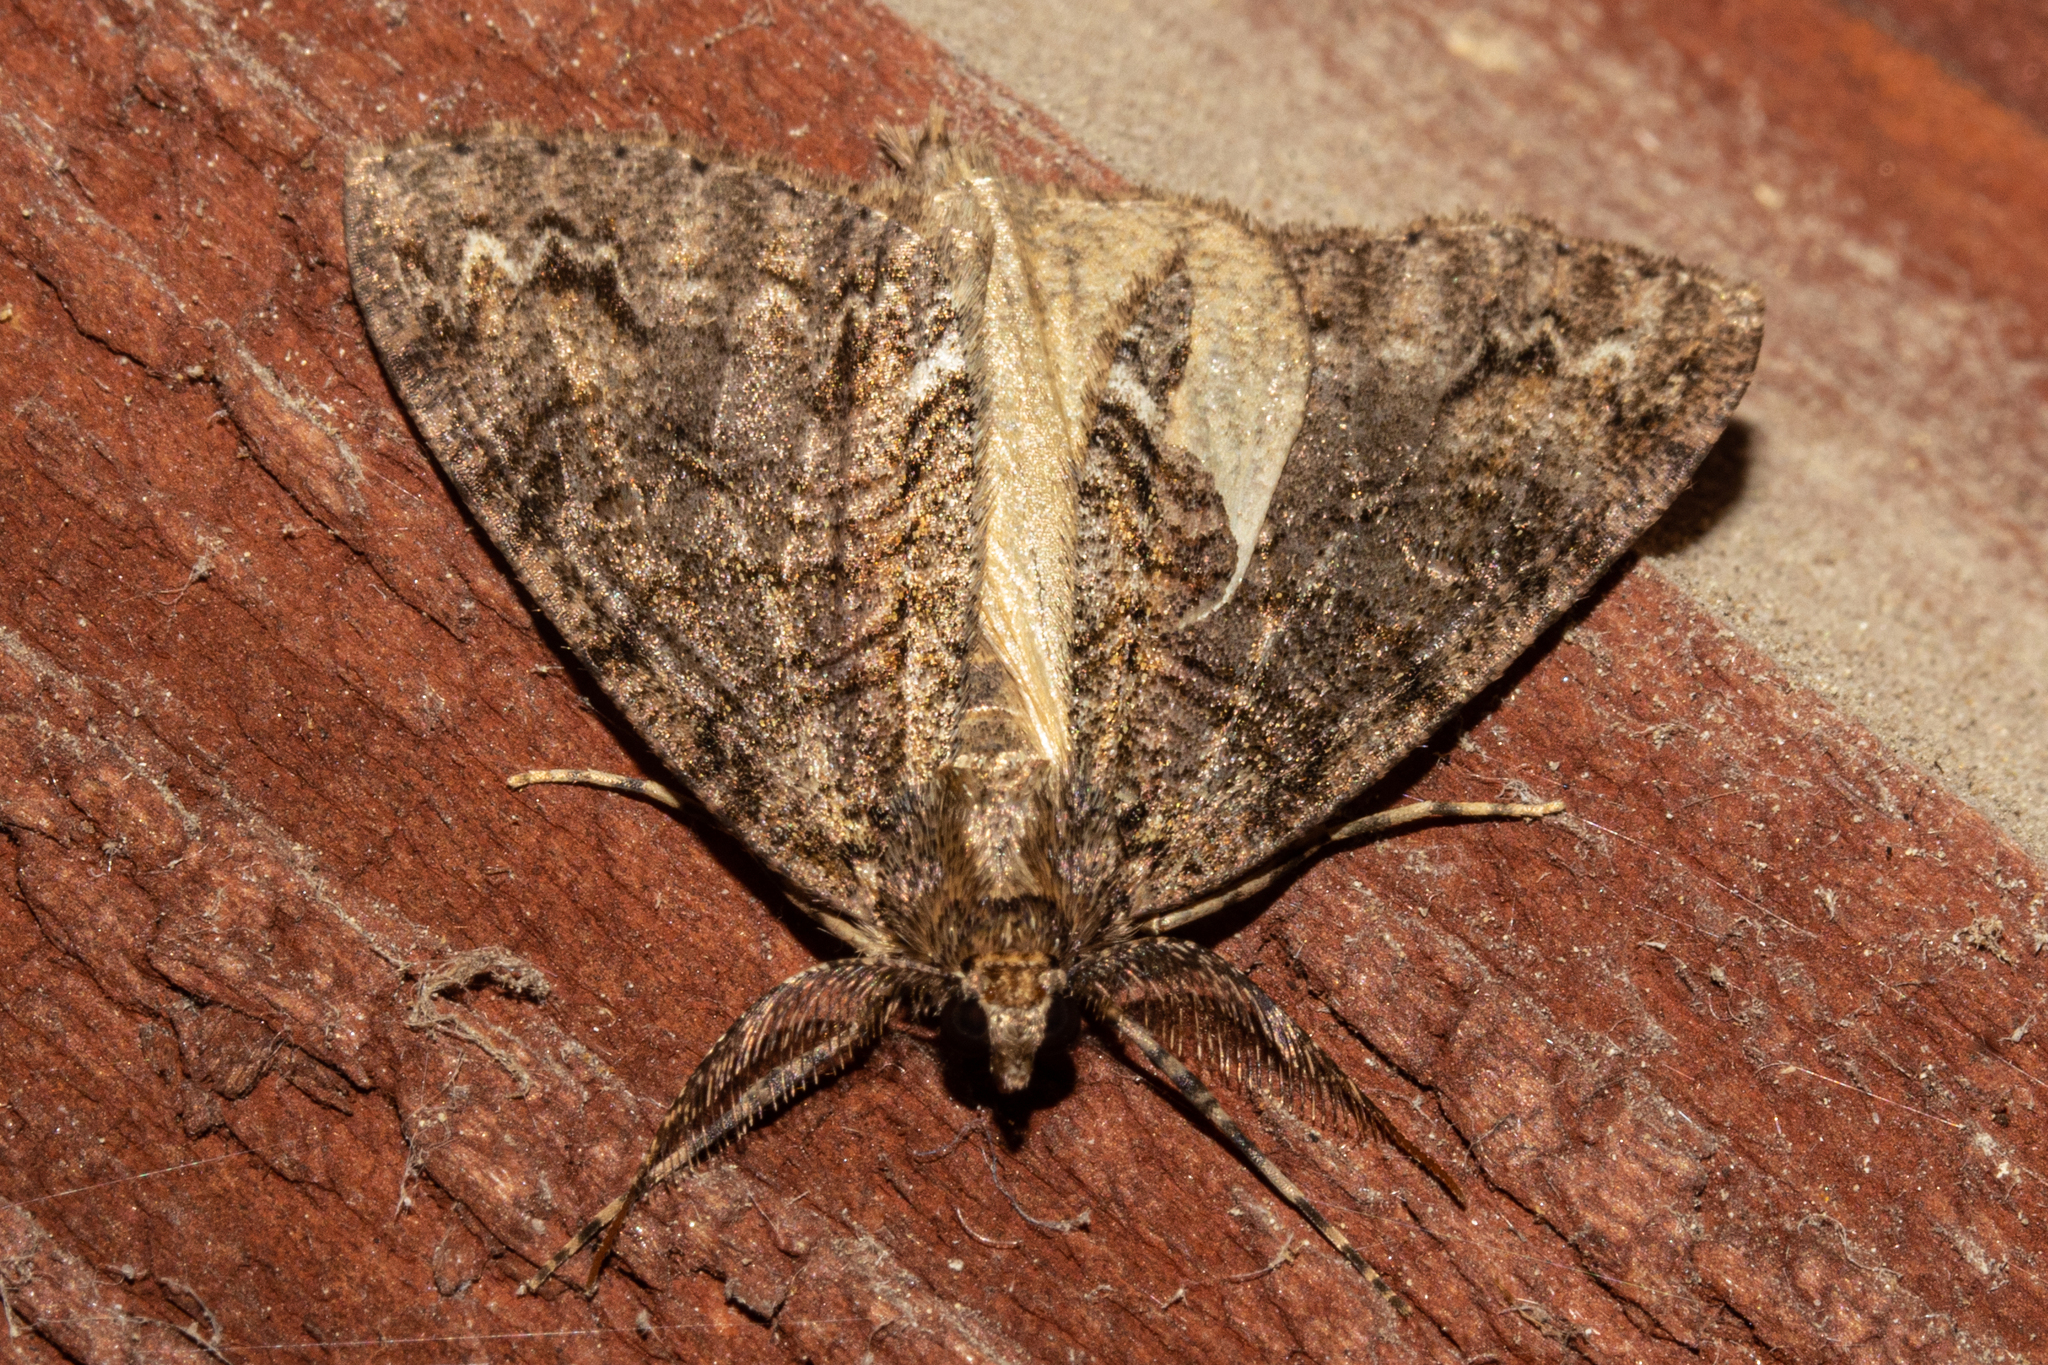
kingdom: Animalia
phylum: Arthropoda
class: Insecta
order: Lepidoptera
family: Geometridae
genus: Pseudocoremia
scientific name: Pseudocoremia suavis
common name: Common forest looper
